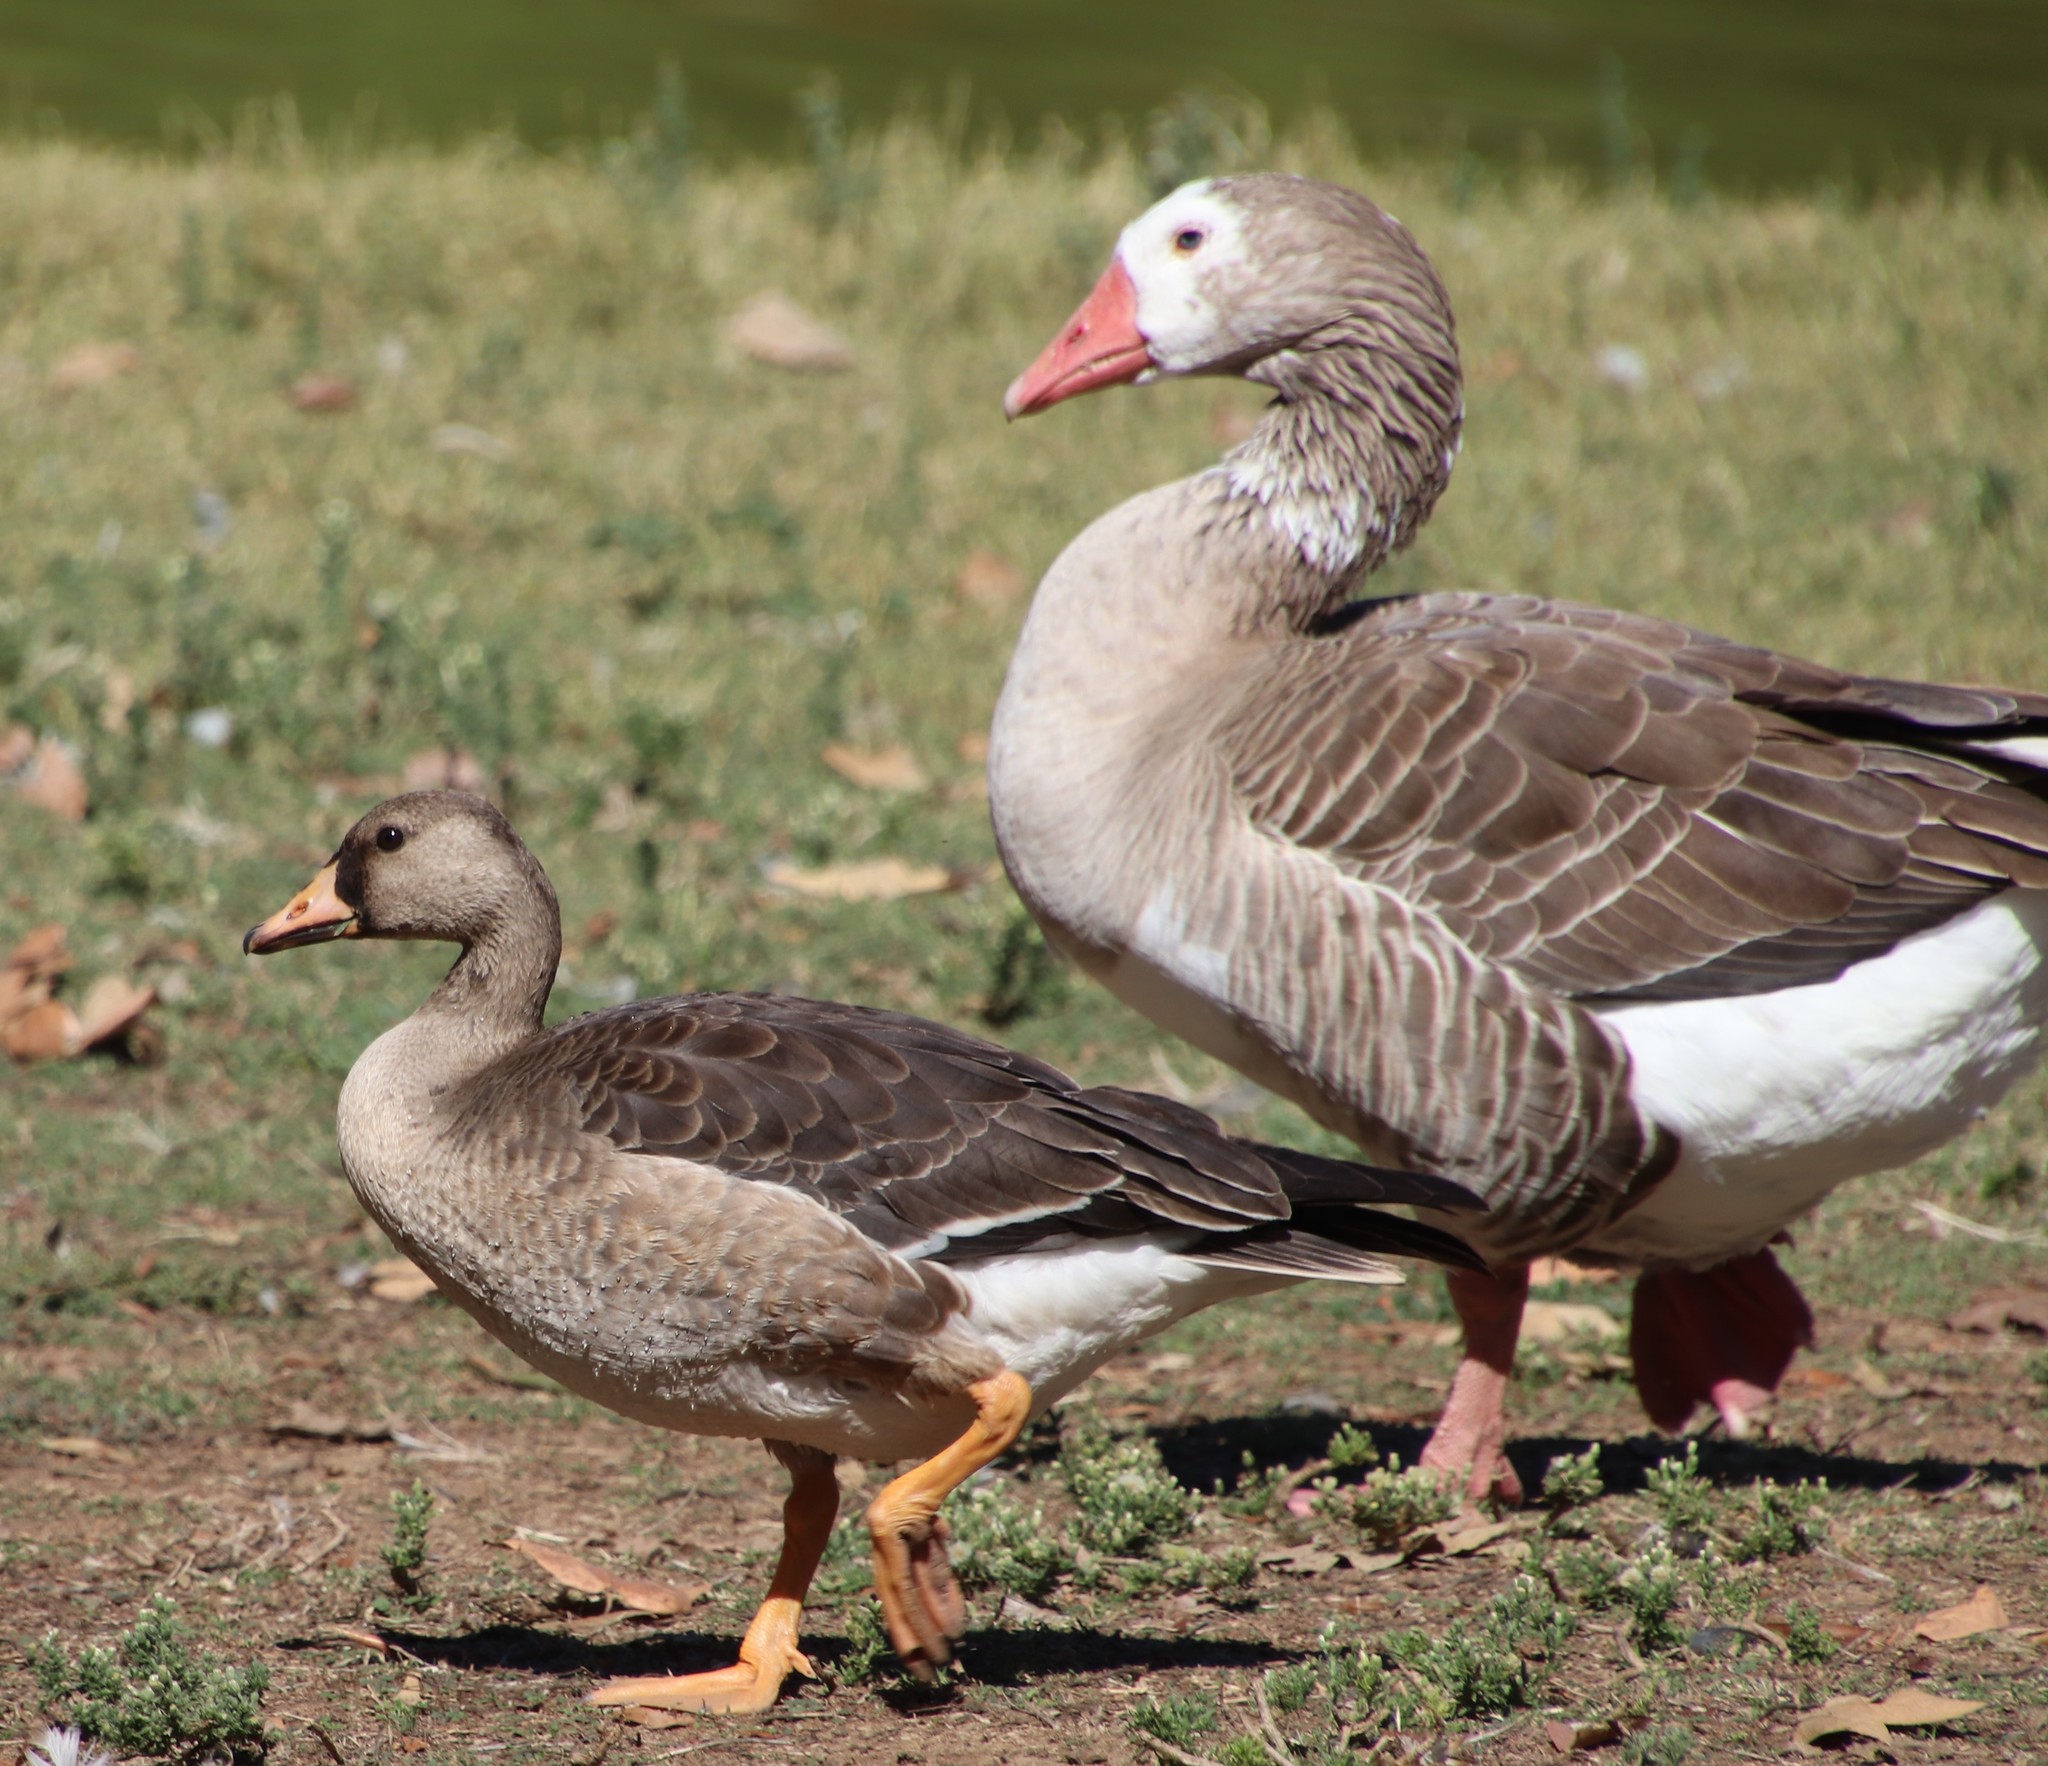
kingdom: Animalia
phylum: Chordata
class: Aves
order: Anseriformes
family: Anatidae
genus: Anser
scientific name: Anser albifrons
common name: Greater white-fronted goose
